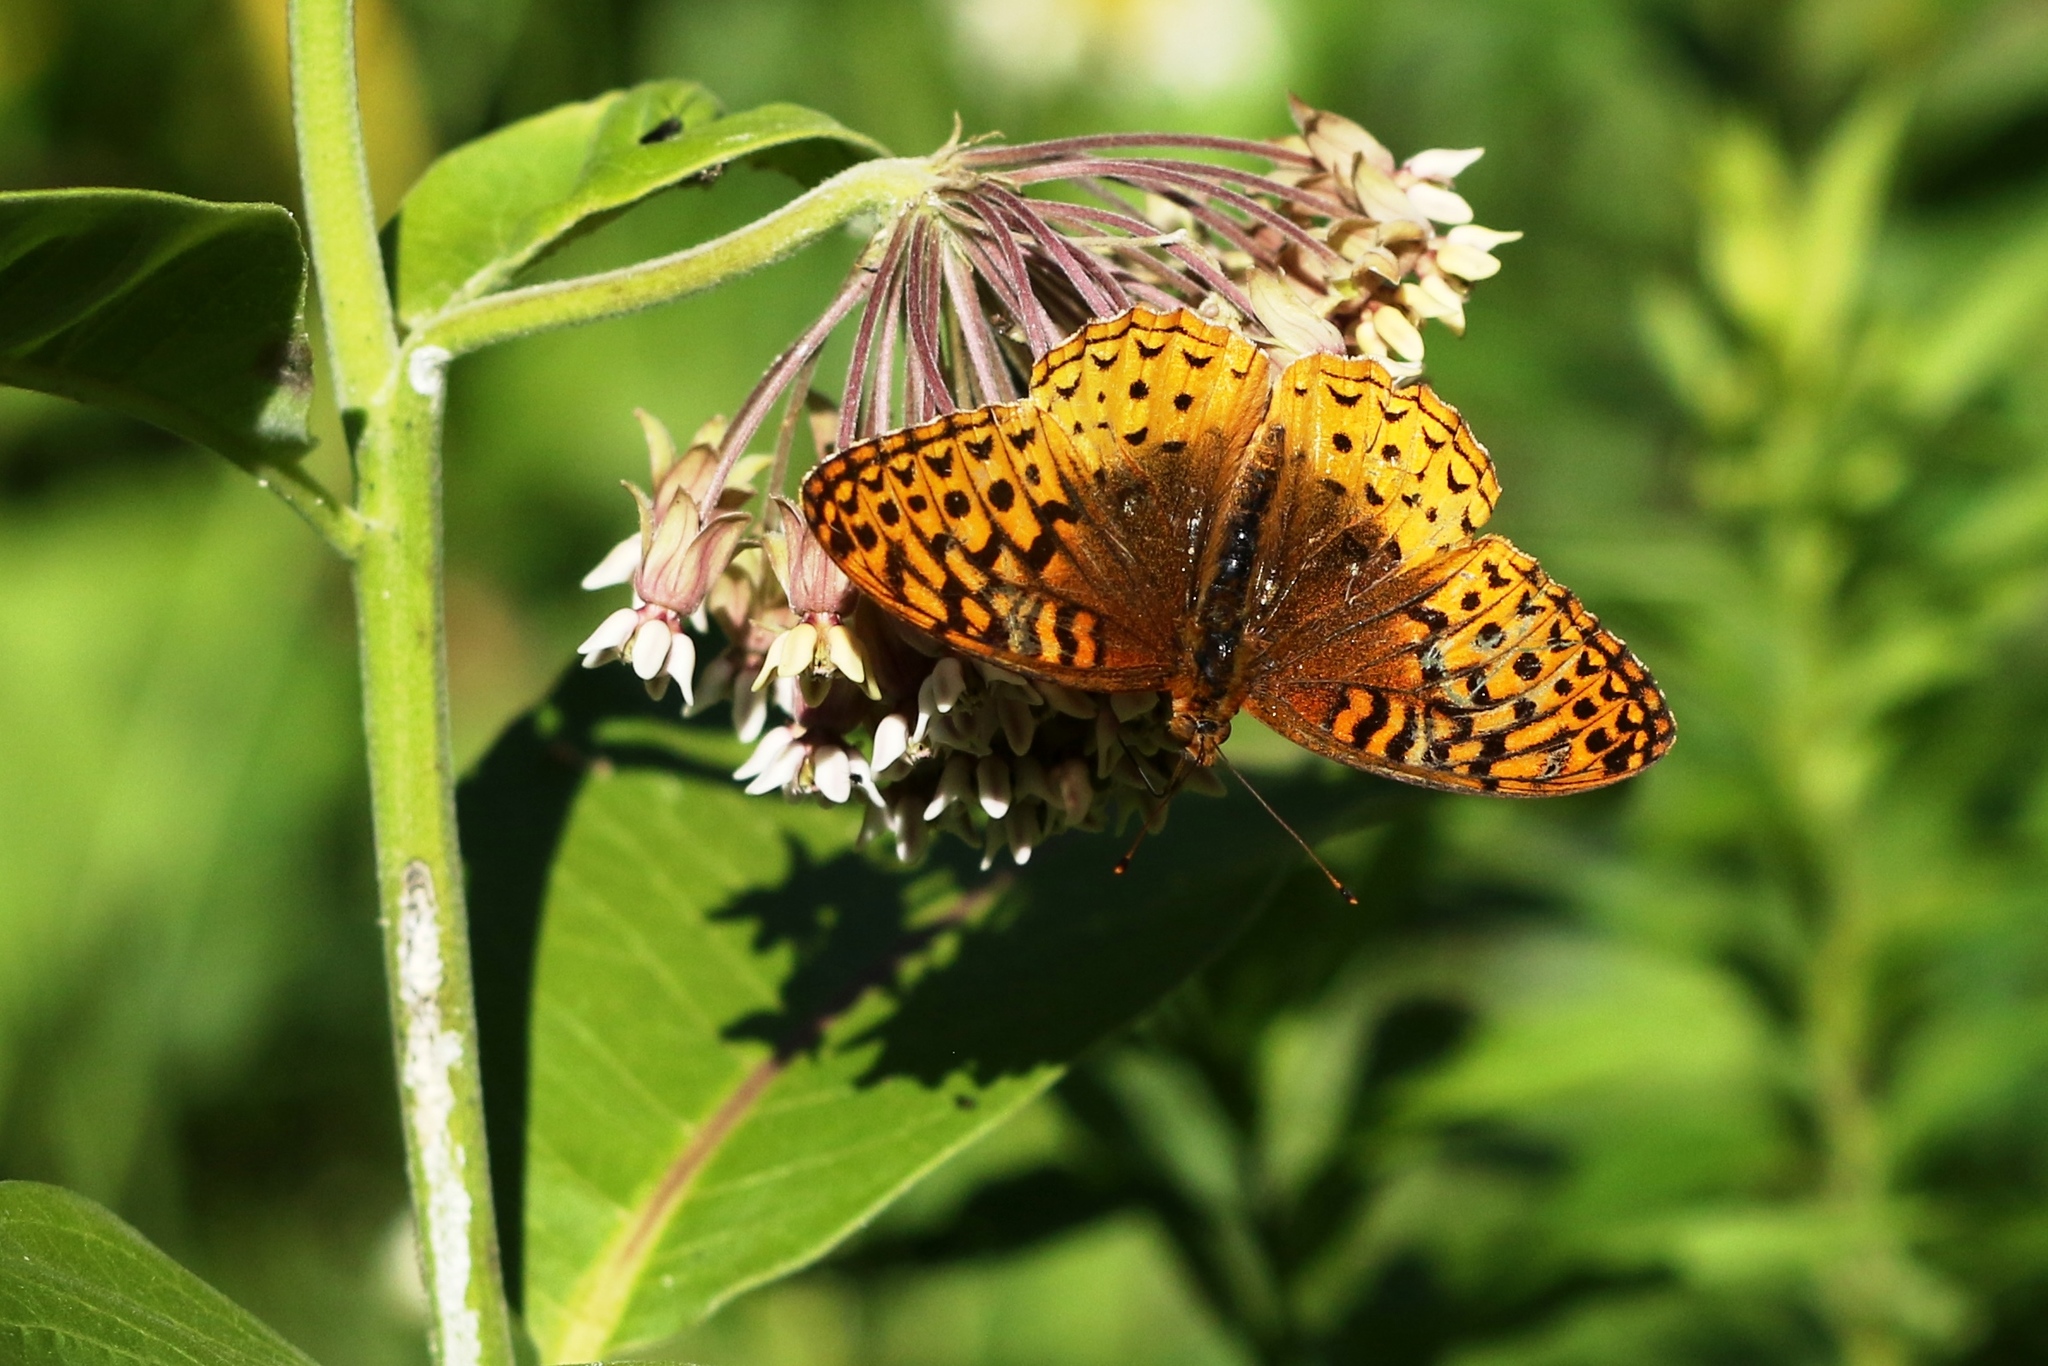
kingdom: Animalia
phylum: Arthropoda
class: Insecta
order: Lepidoptera
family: Nymphalidae
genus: Speyeria
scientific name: Speyeria cybele
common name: Great spangled fritillary
